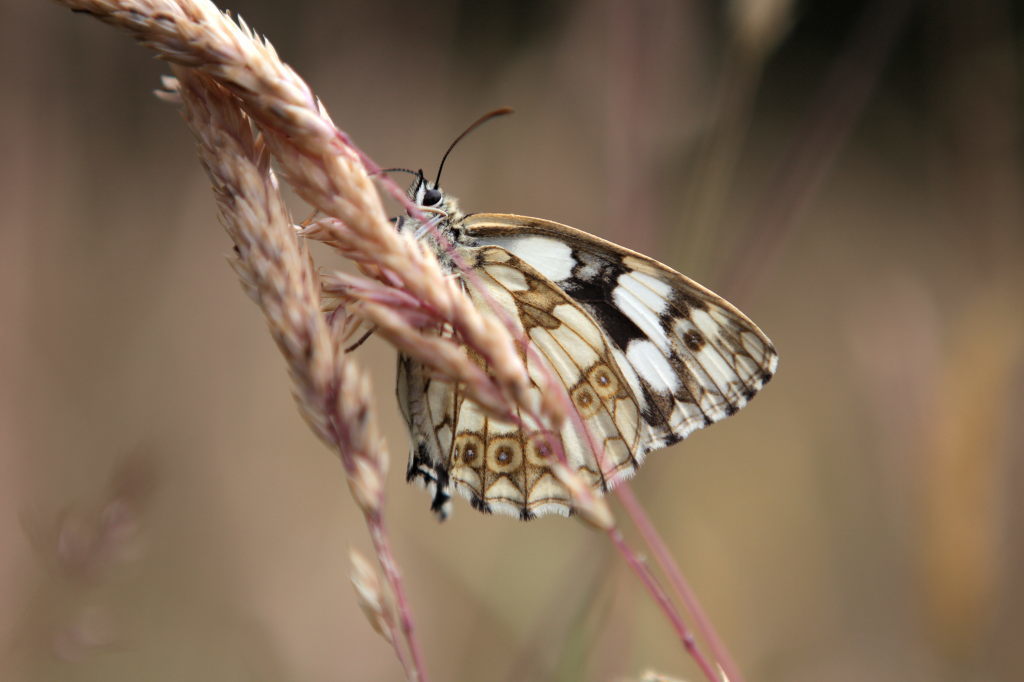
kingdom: Animalia
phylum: Arthropoda
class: Insecta
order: Lepidoptera
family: Nymphalidae
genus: Melanargia
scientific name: Melanargia galathea
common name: Marbled white
